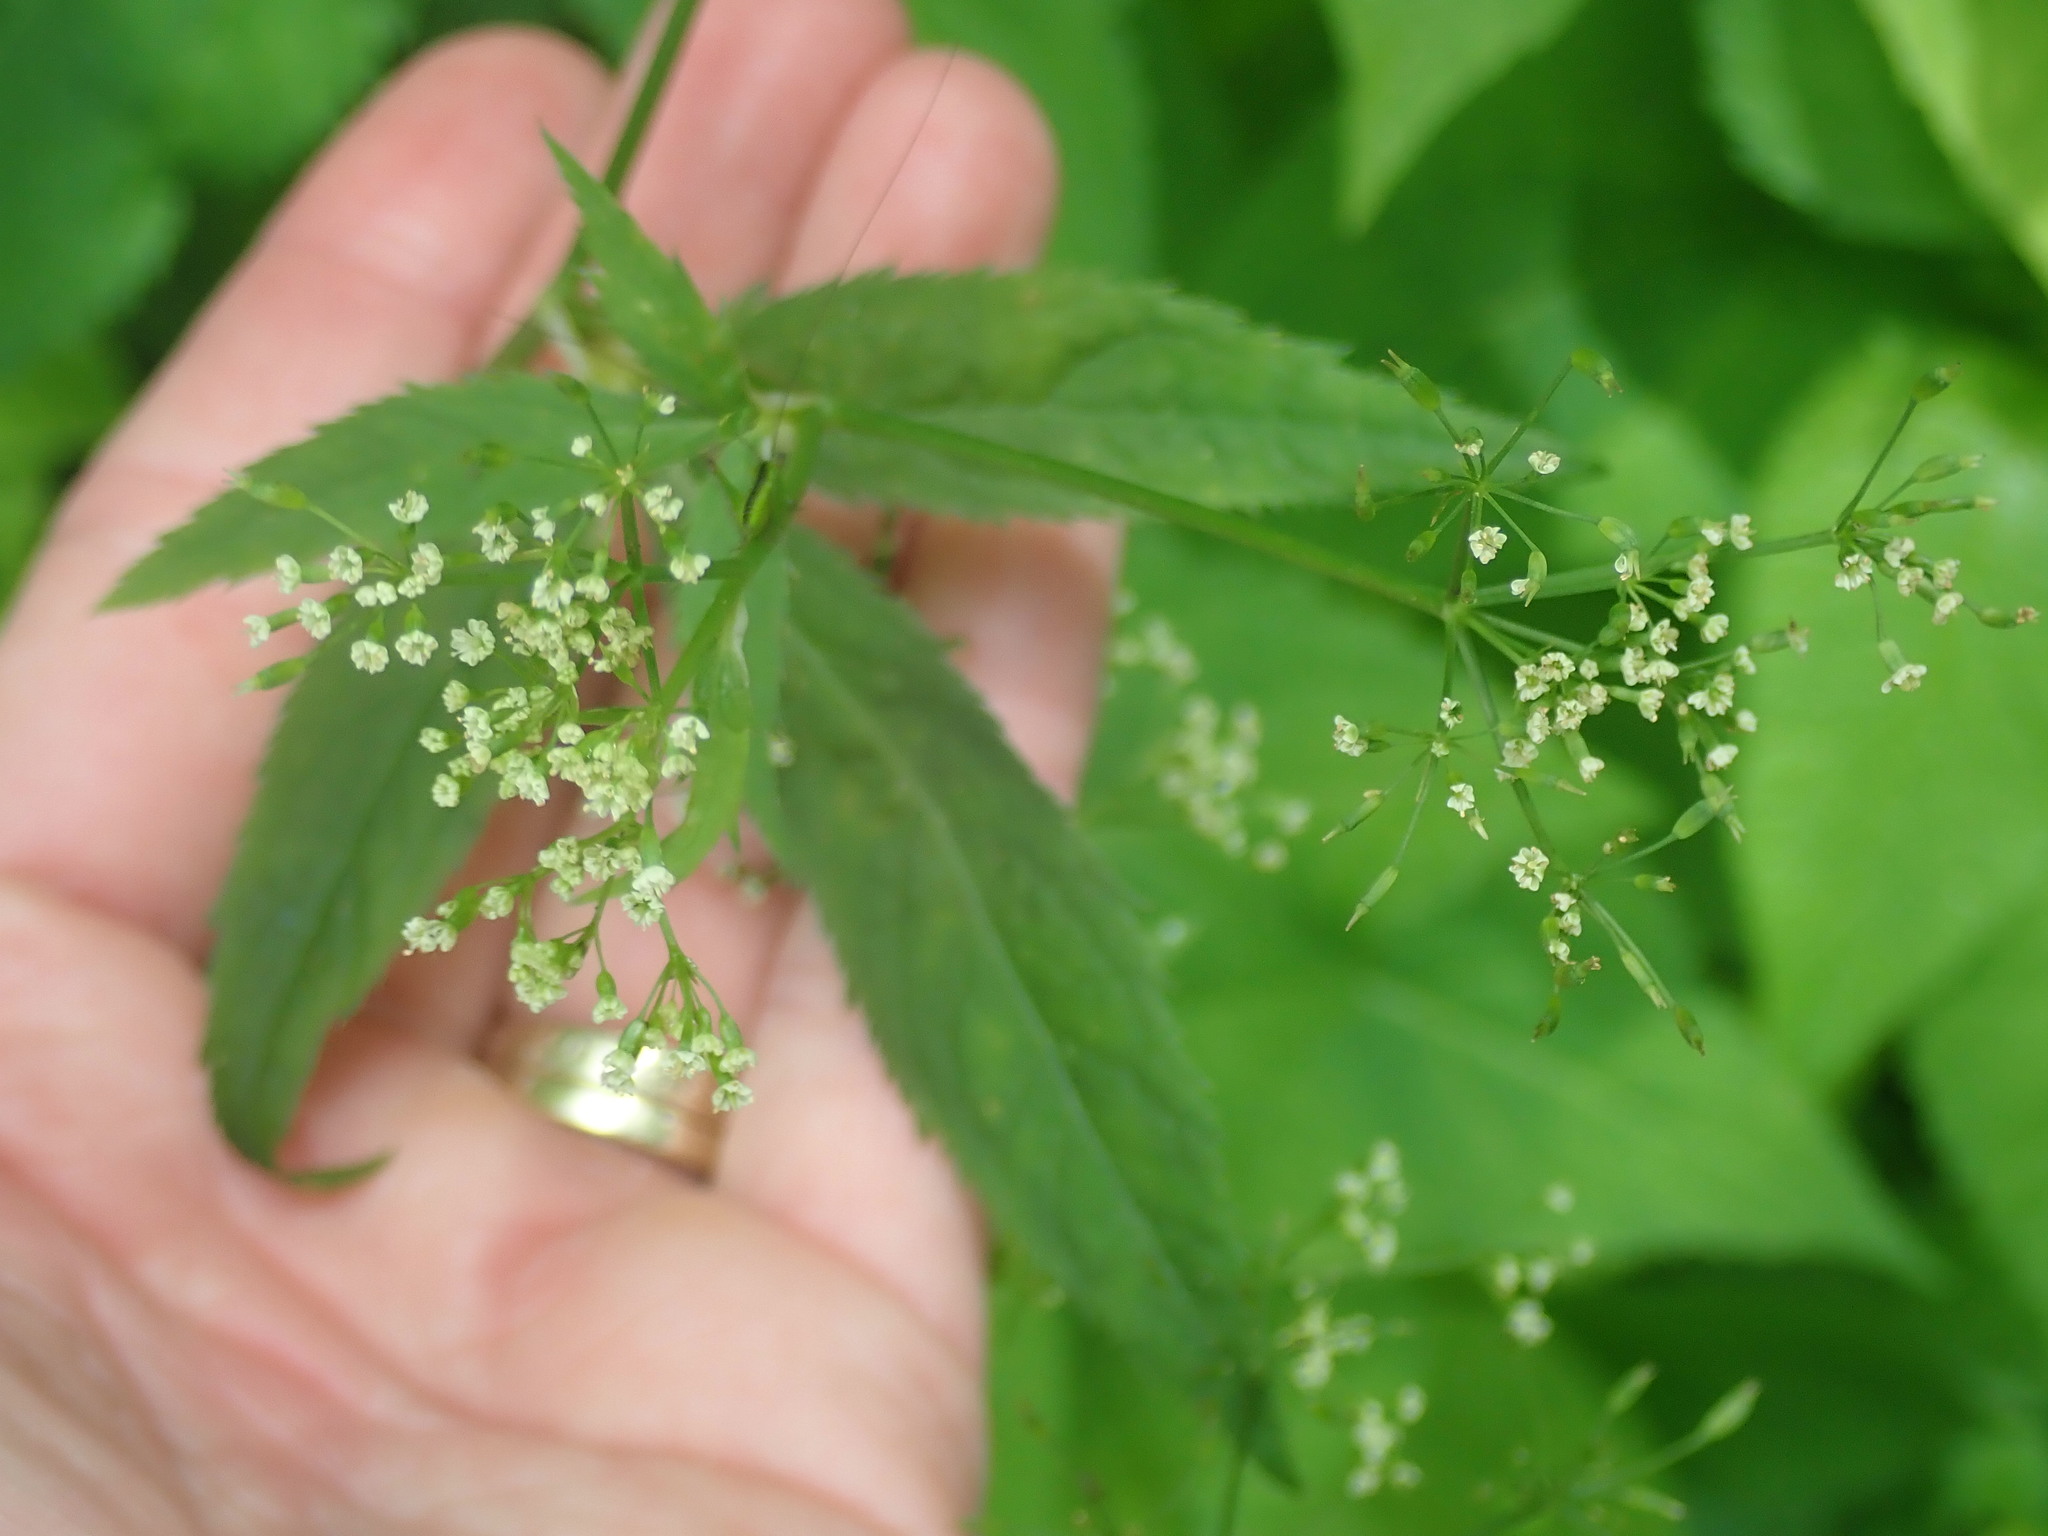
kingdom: Plantae
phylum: Tracheophyta
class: Magnoliopsida
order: Apiales
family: Apiaceae
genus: Cryptotaenia
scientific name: Cryptotaenia canadensis
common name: Honewort
